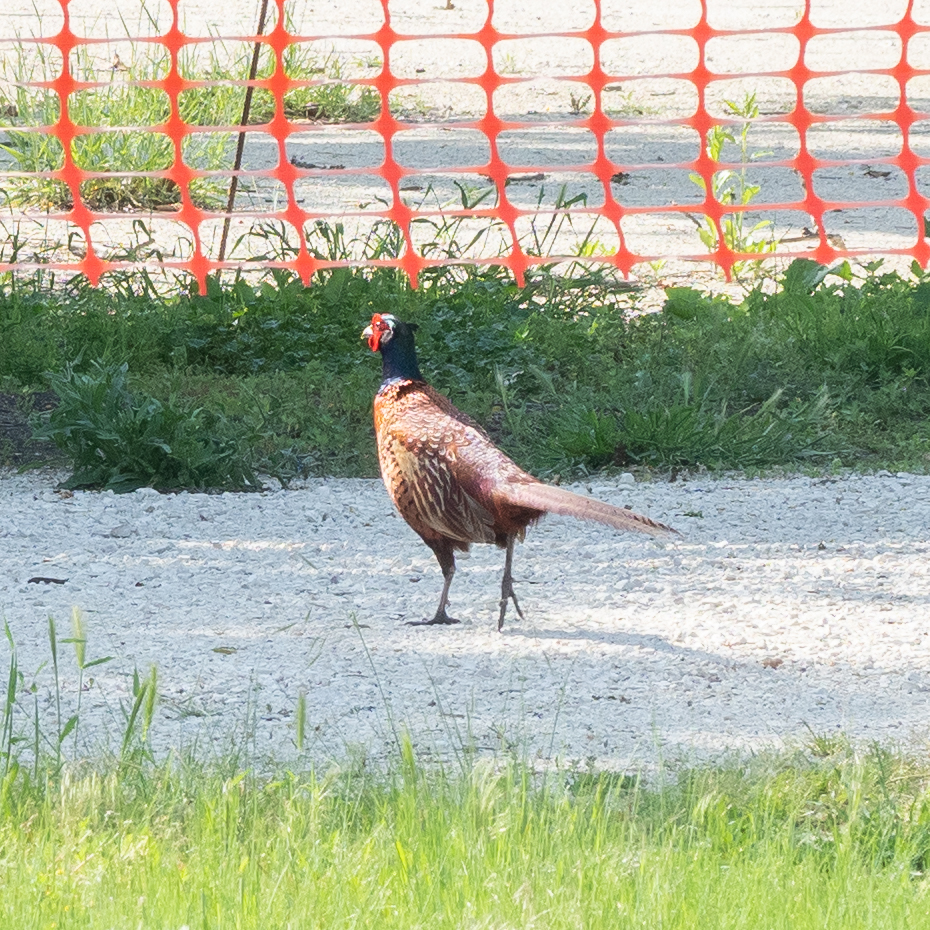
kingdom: Animalia
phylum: Chordata
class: Aves
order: Galliformes
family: Phasianidae
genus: Phasianus
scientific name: Phasianus colchicus
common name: Common pheasant
